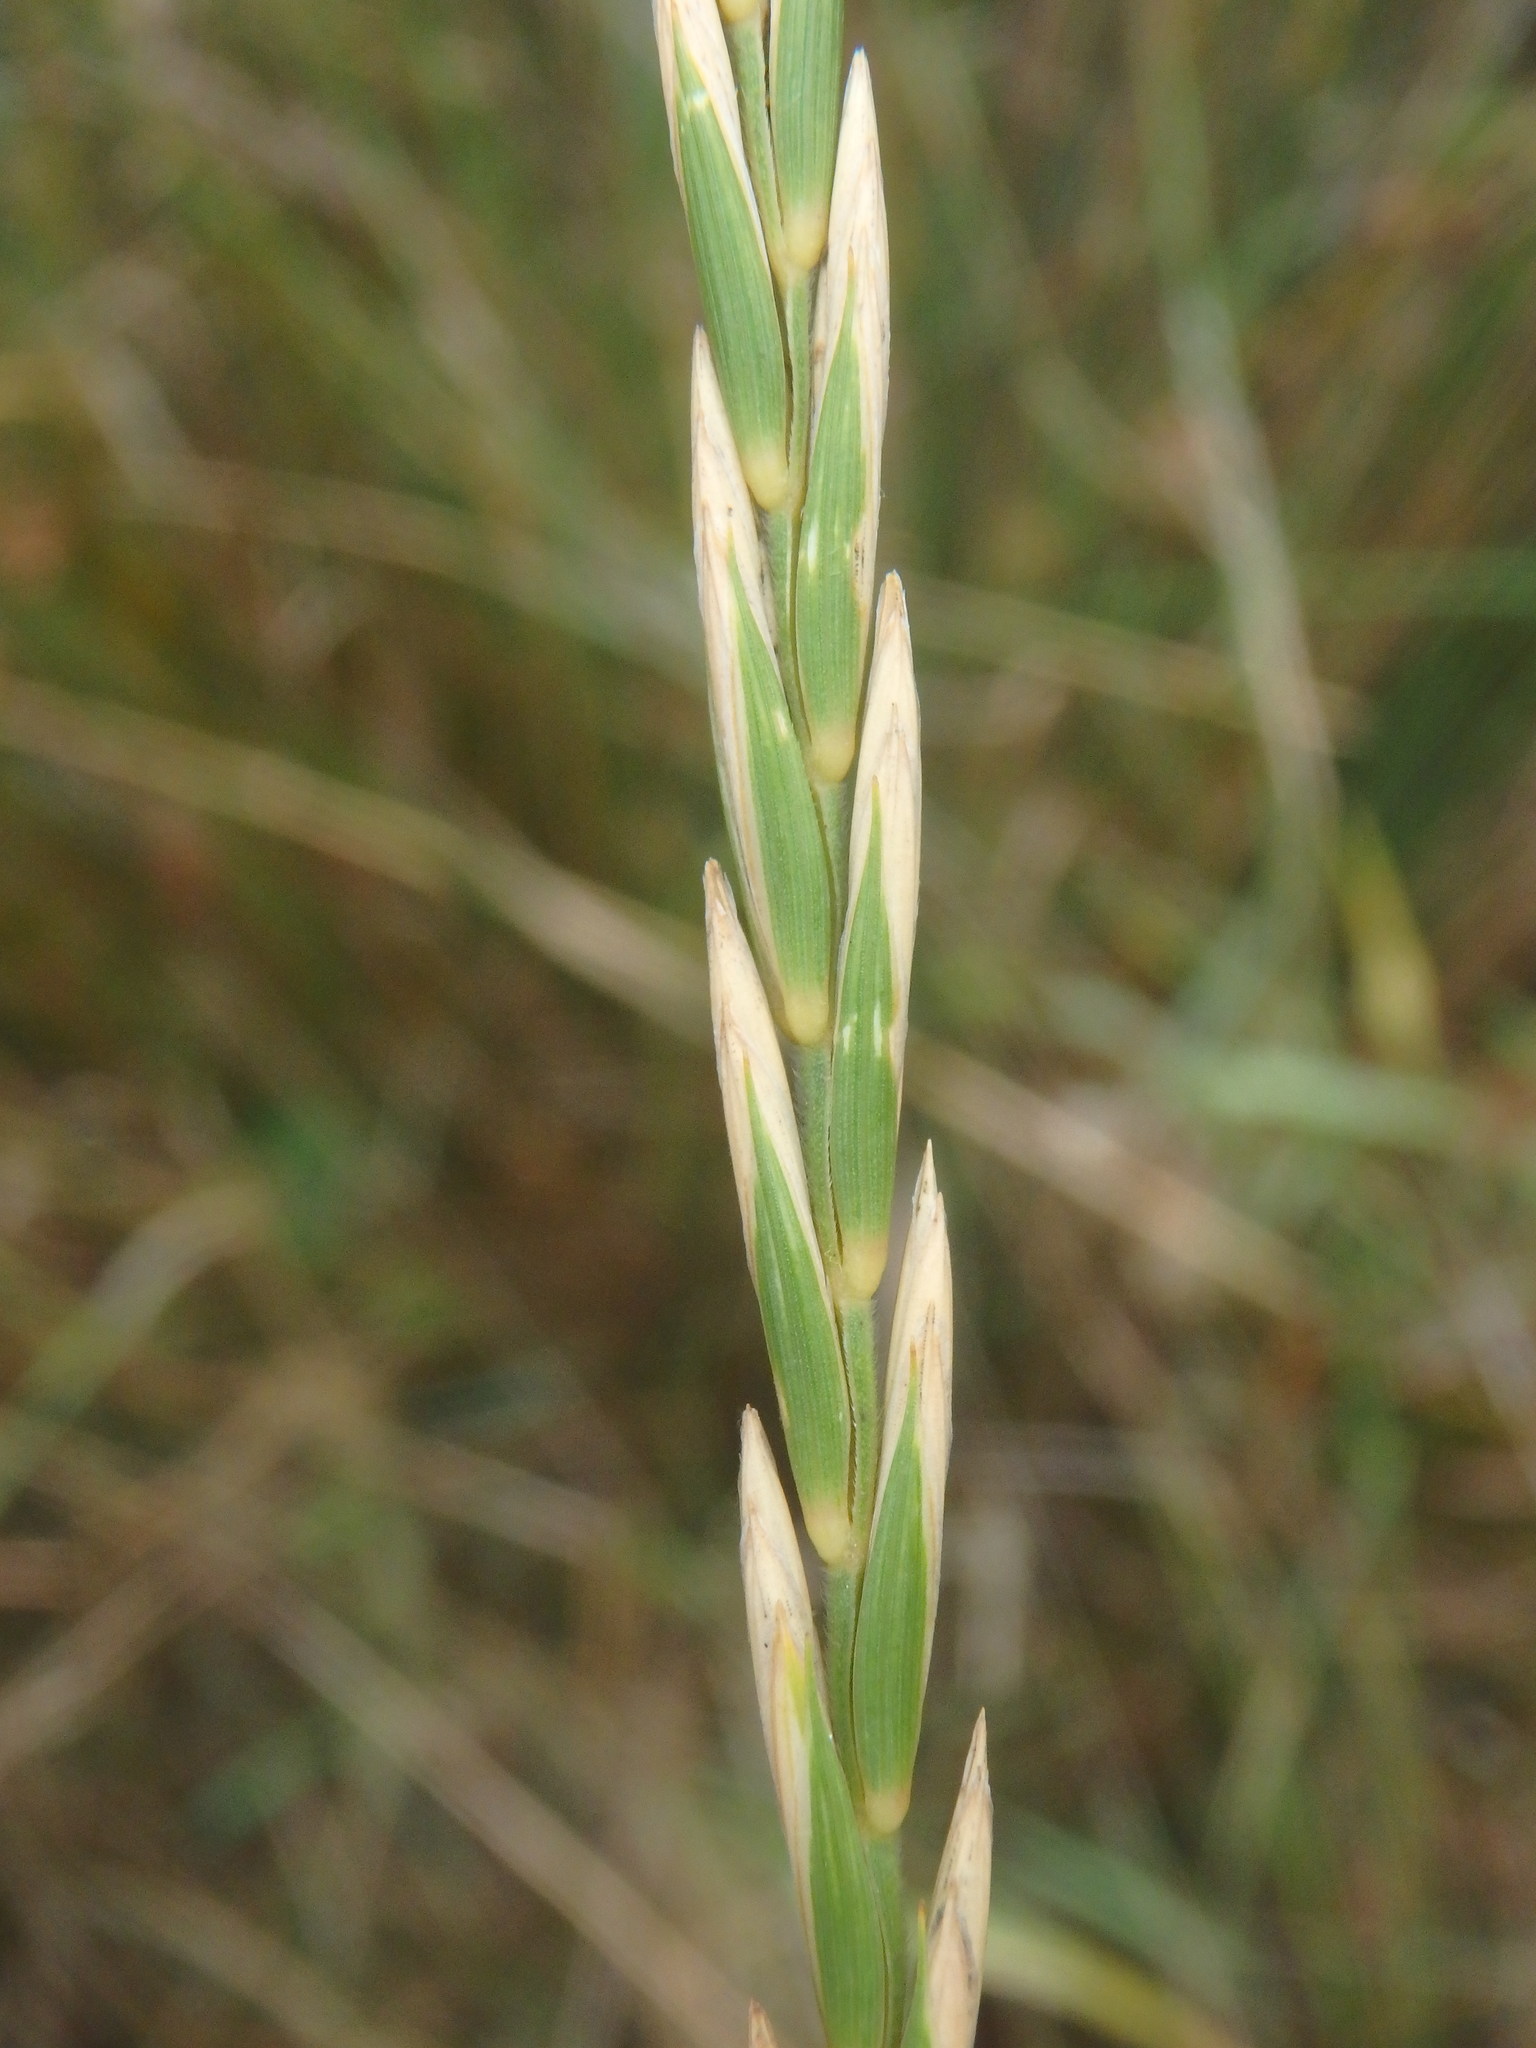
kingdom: Plantae
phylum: Tracheophyta
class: Liliopsida
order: Poales
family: Poaceae
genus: Elymus
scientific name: Elymus repens
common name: Quackgrass
